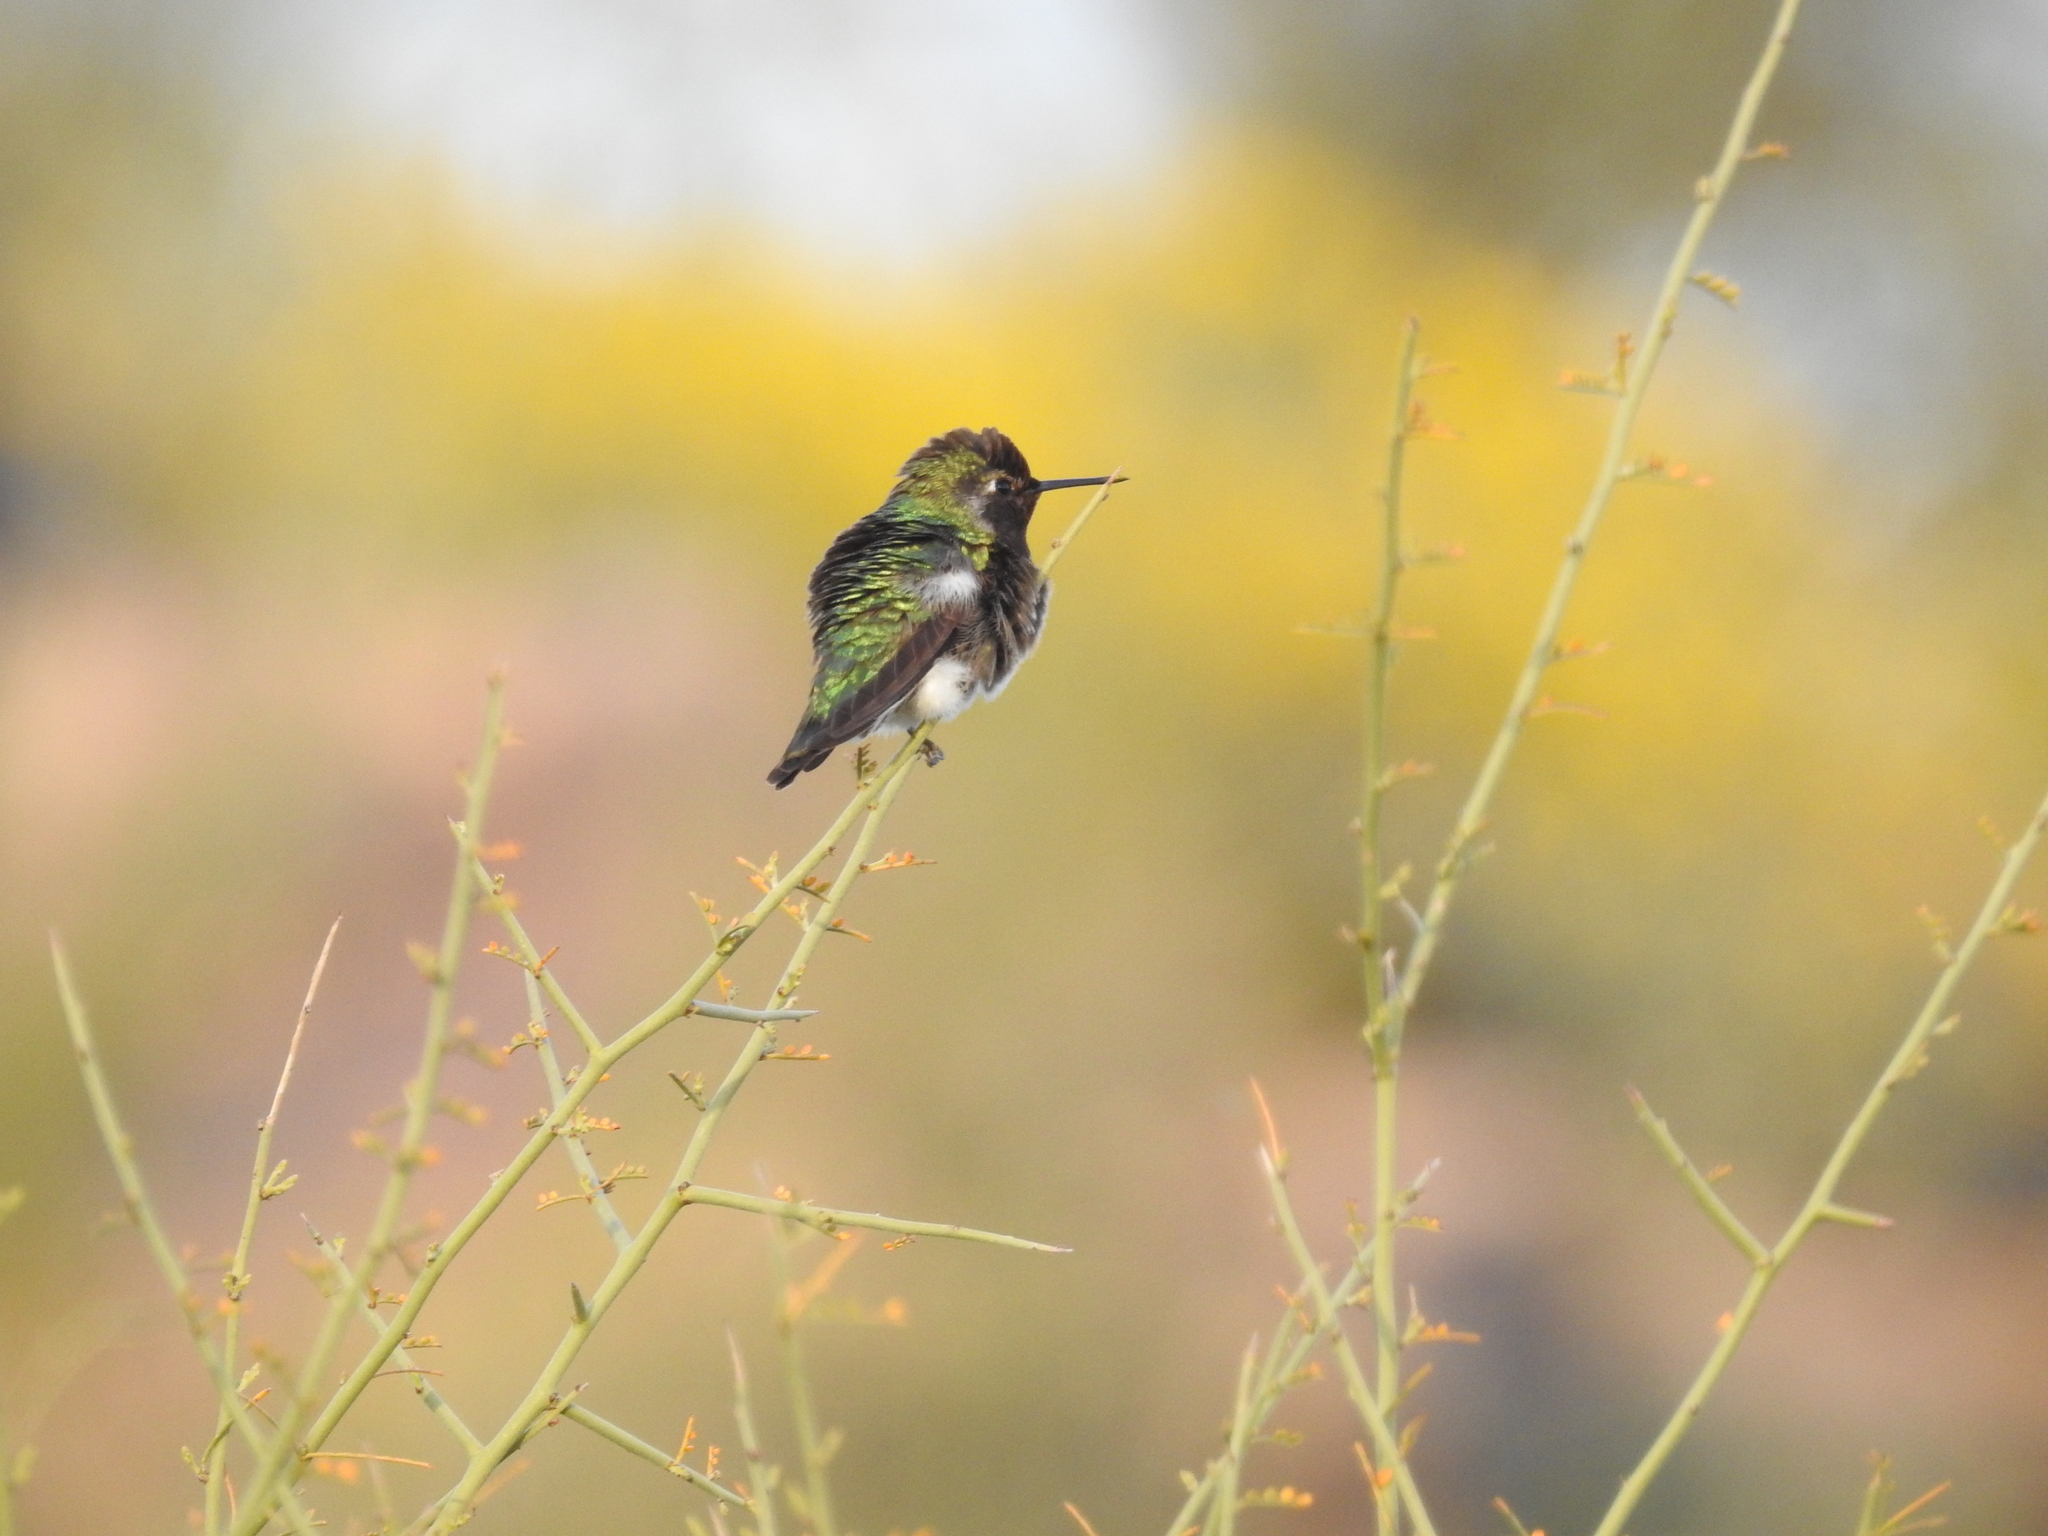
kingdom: Animalia
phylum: Chordata
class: Aves
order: Apodiformes
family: Trochilidae
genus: Calypte
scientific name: Calypte anna
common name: Anna's hummingbird
